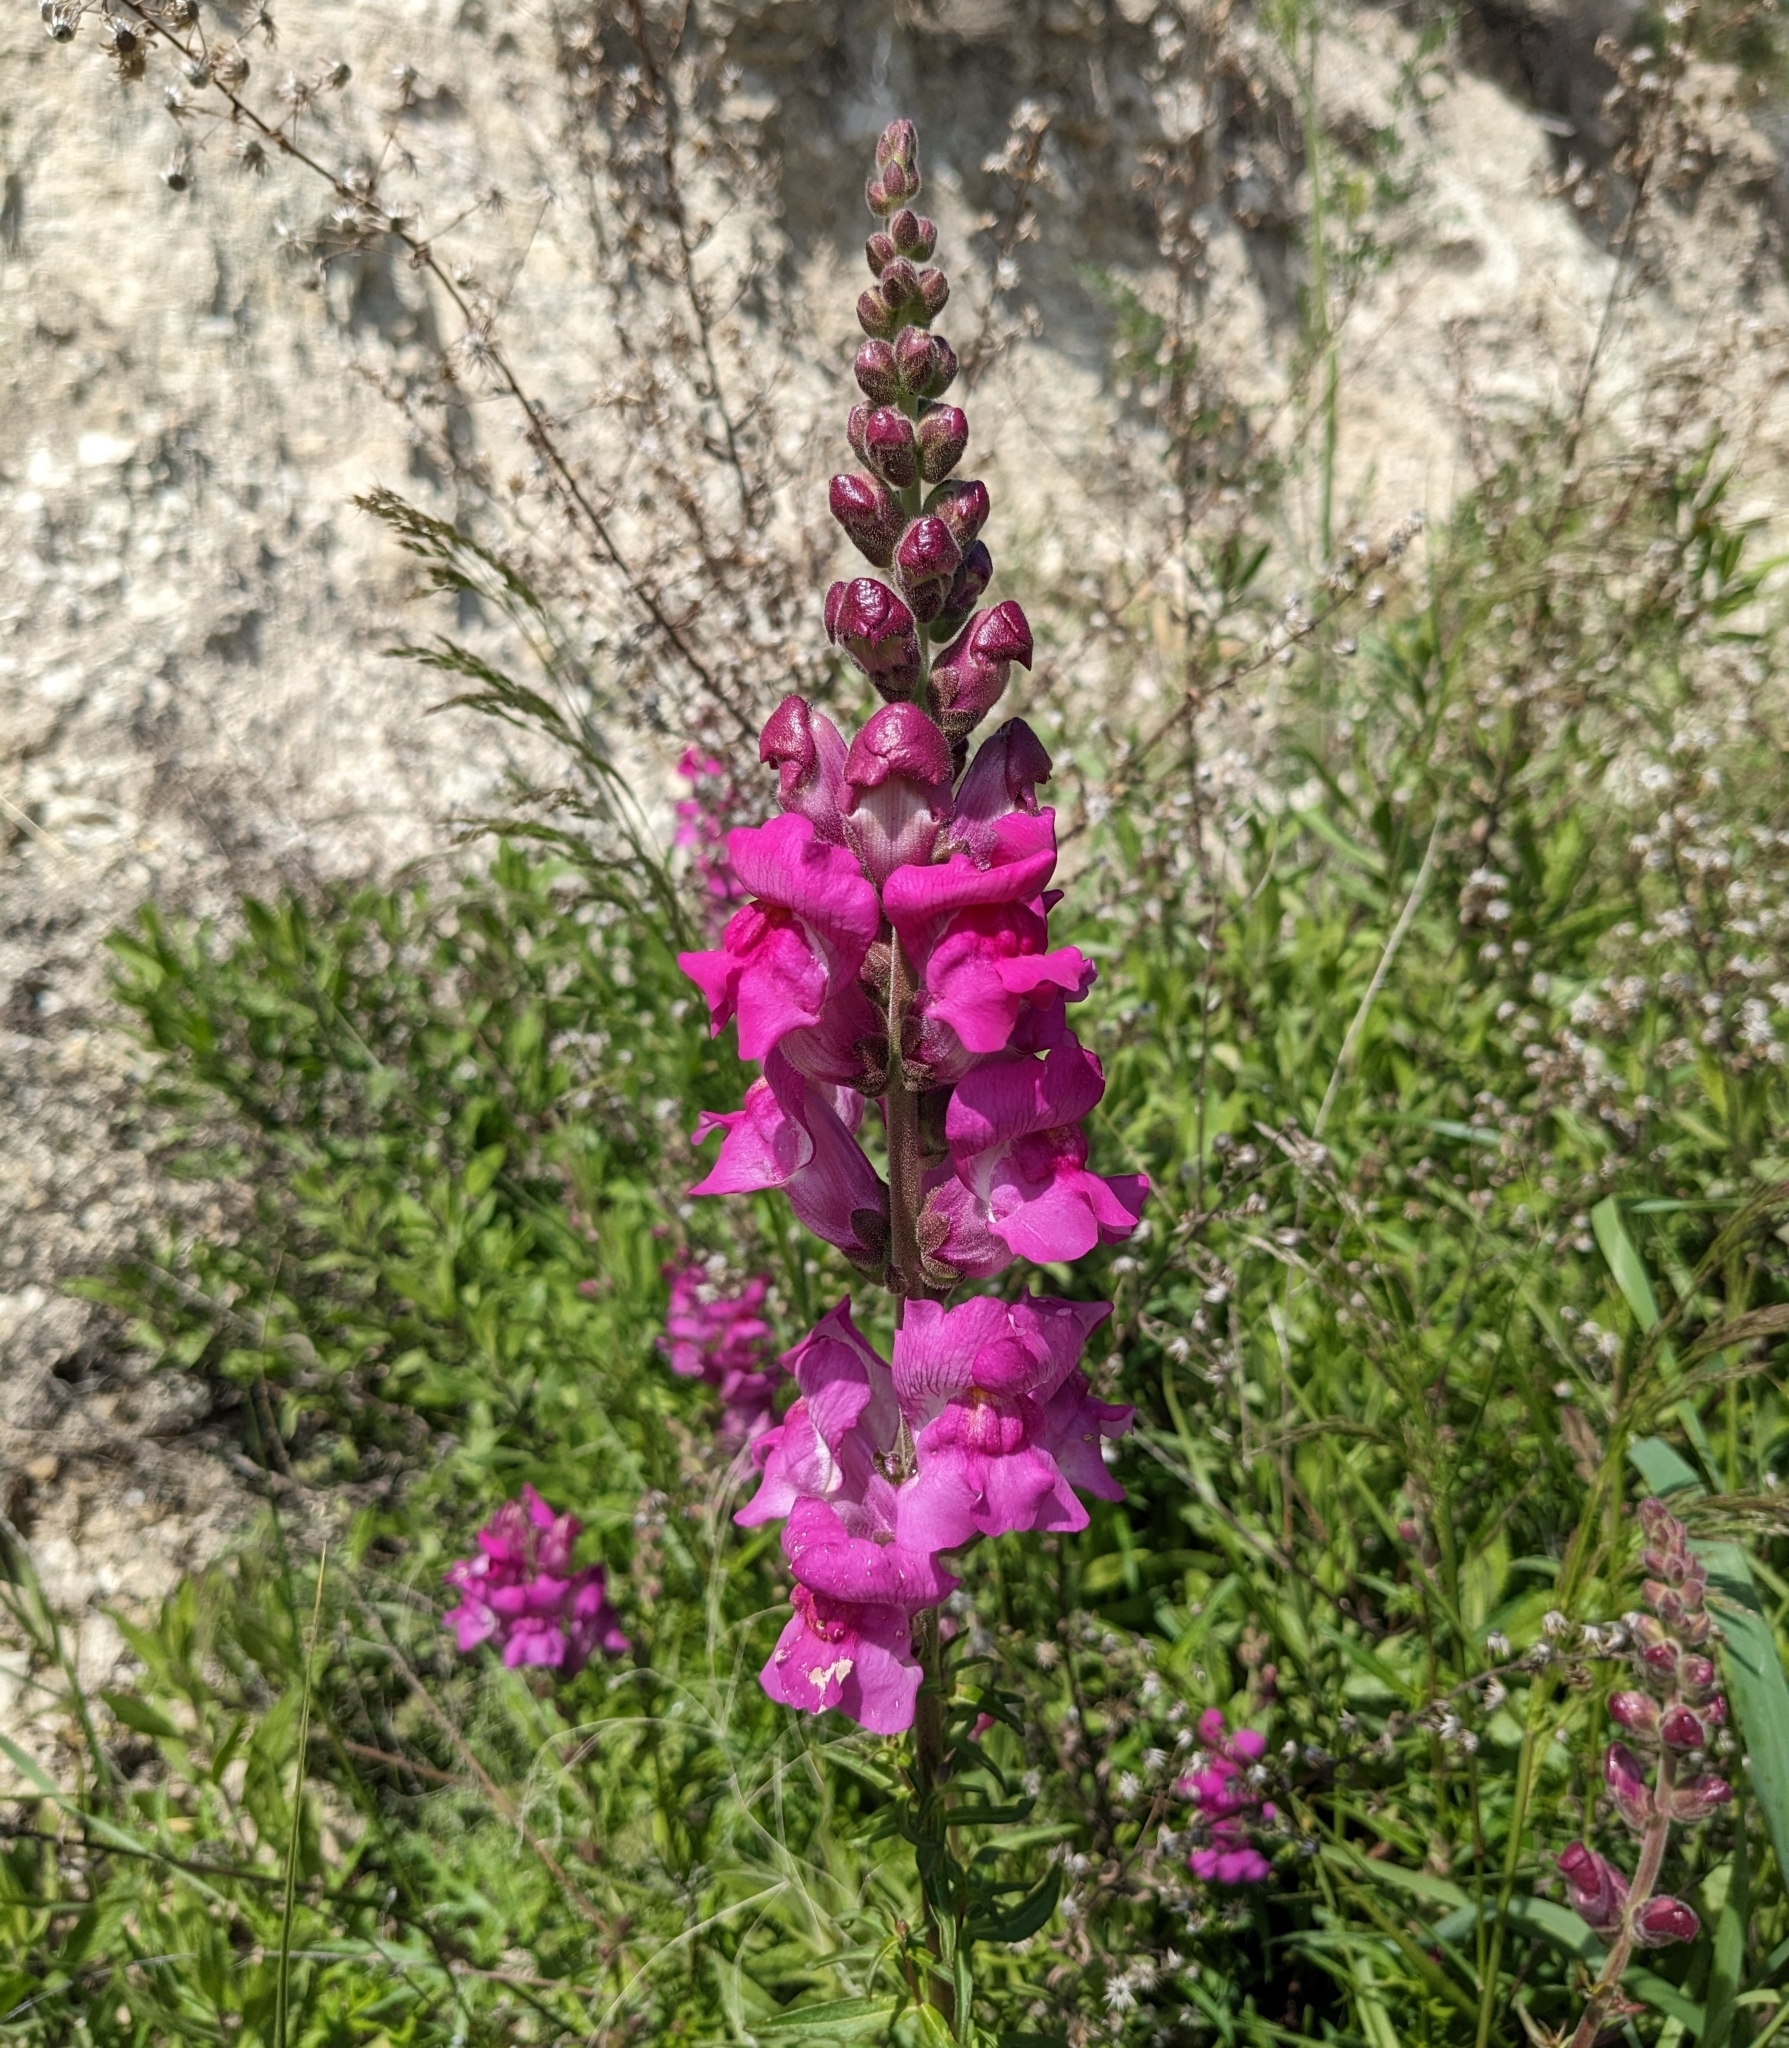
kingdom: Plantae
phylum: Tracheophyta
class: Magnoliopsida
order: Lamiales
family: Plantaginaceae
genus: Antirrhinum
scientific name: Antirrhinum majus
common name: Snapdragon
